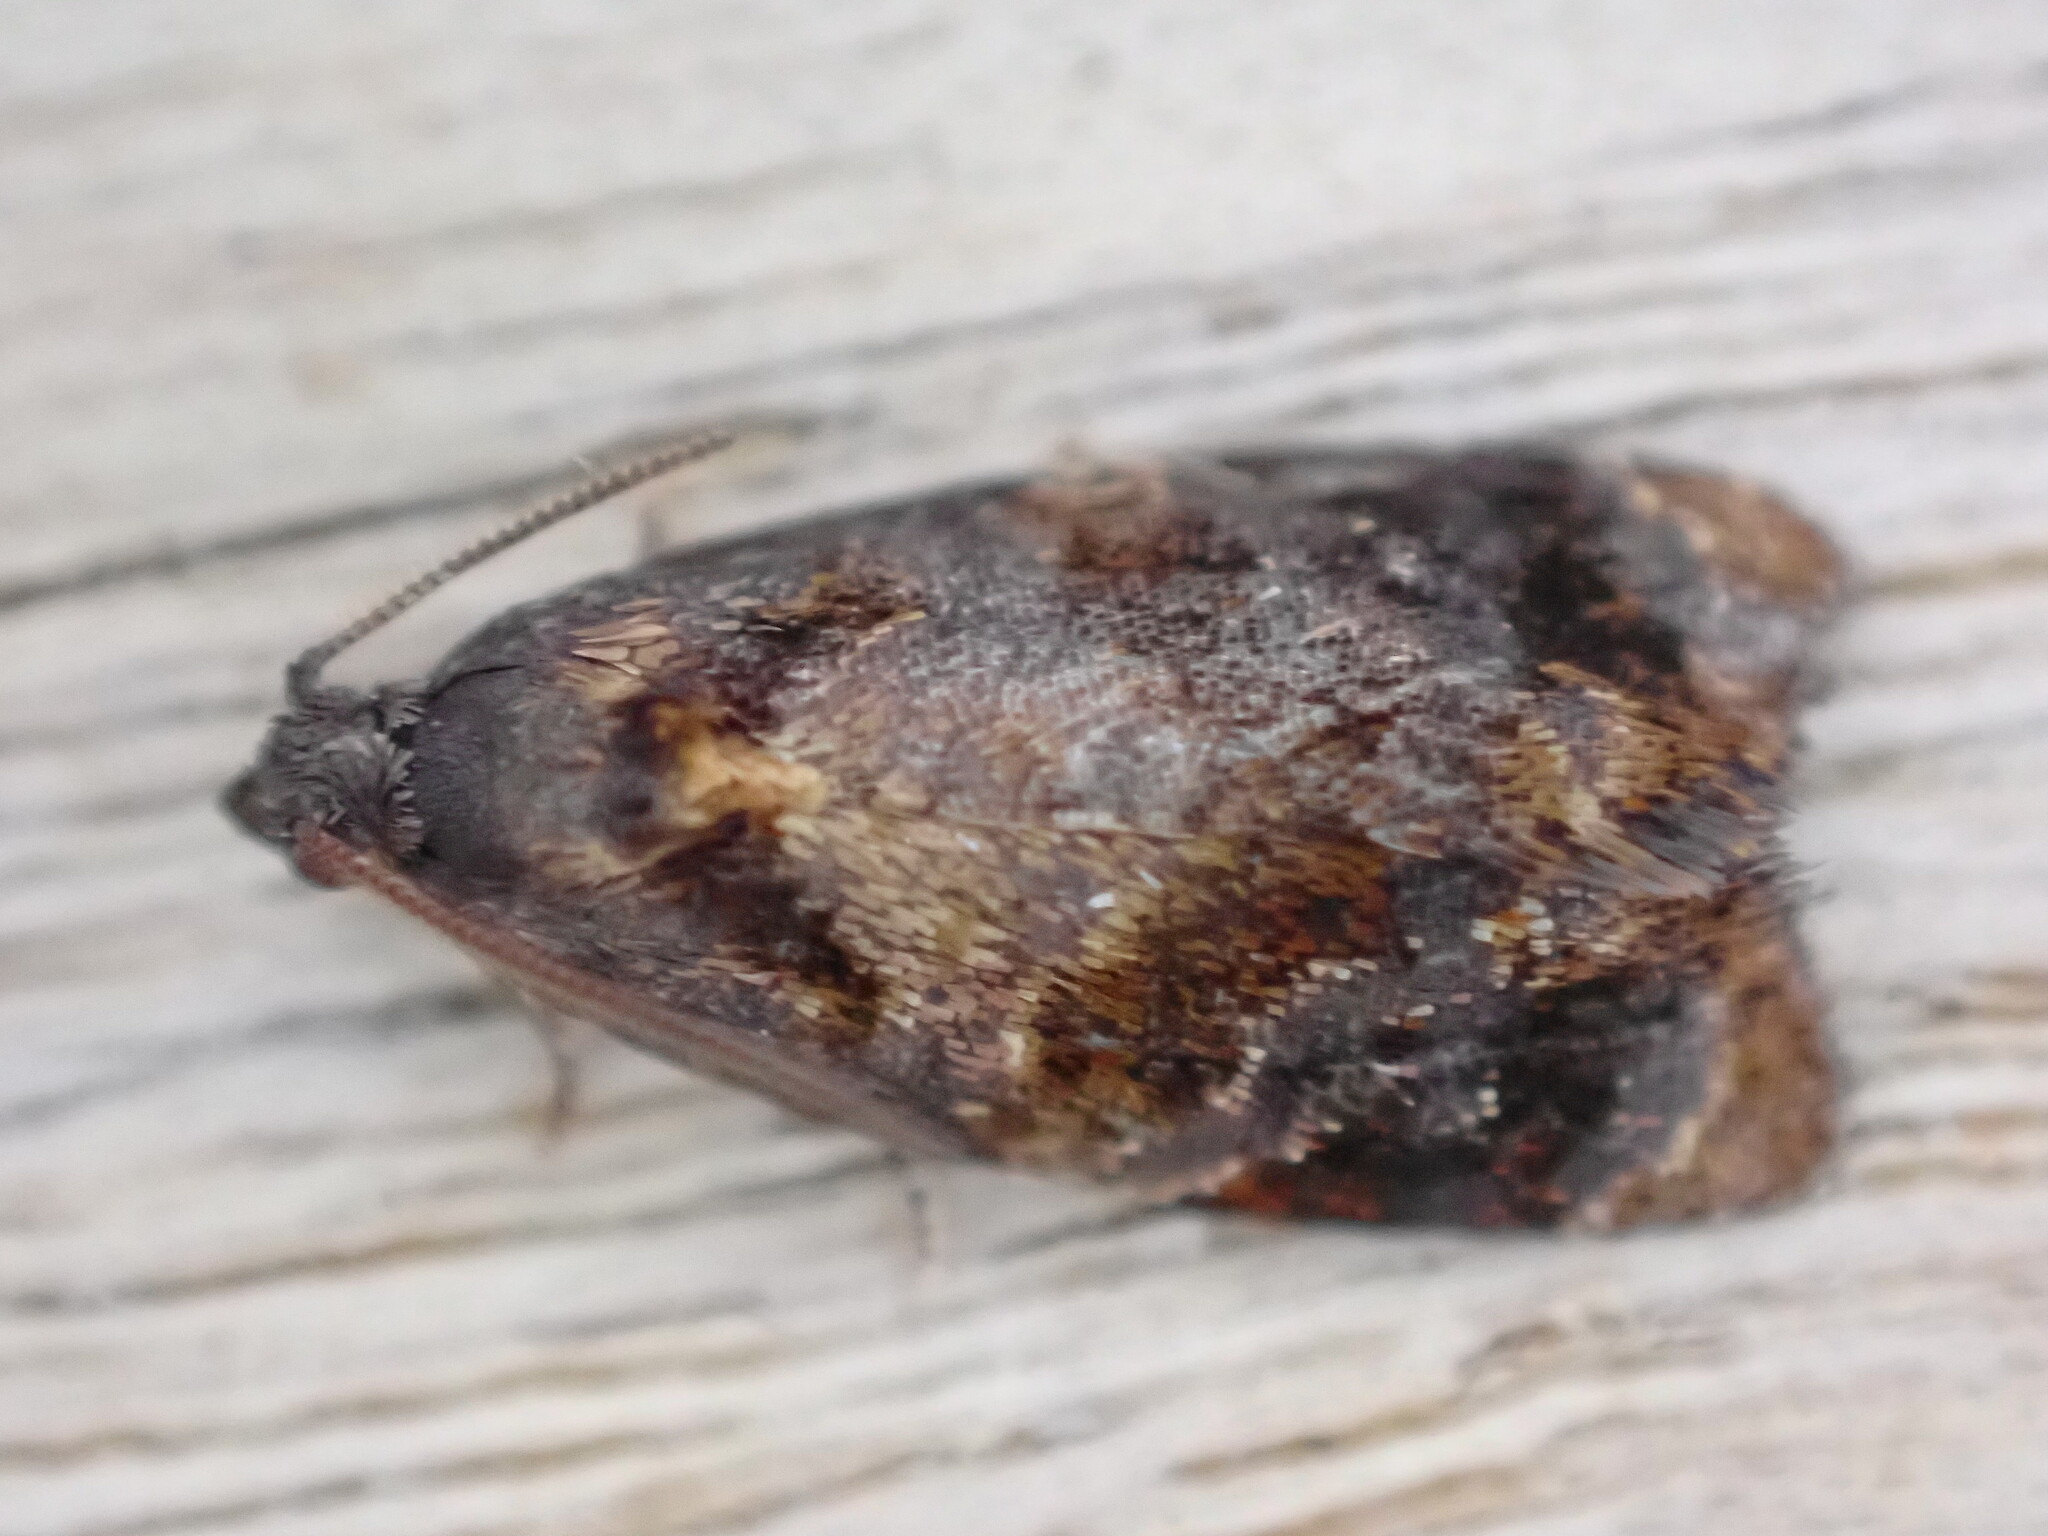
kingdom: Animalia
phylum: Arthropoda
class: Insecta
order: Lepidoptera
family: Tortricidae
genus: Ditula
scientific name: Ditula angustiorana
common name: Red-barred tortrix
